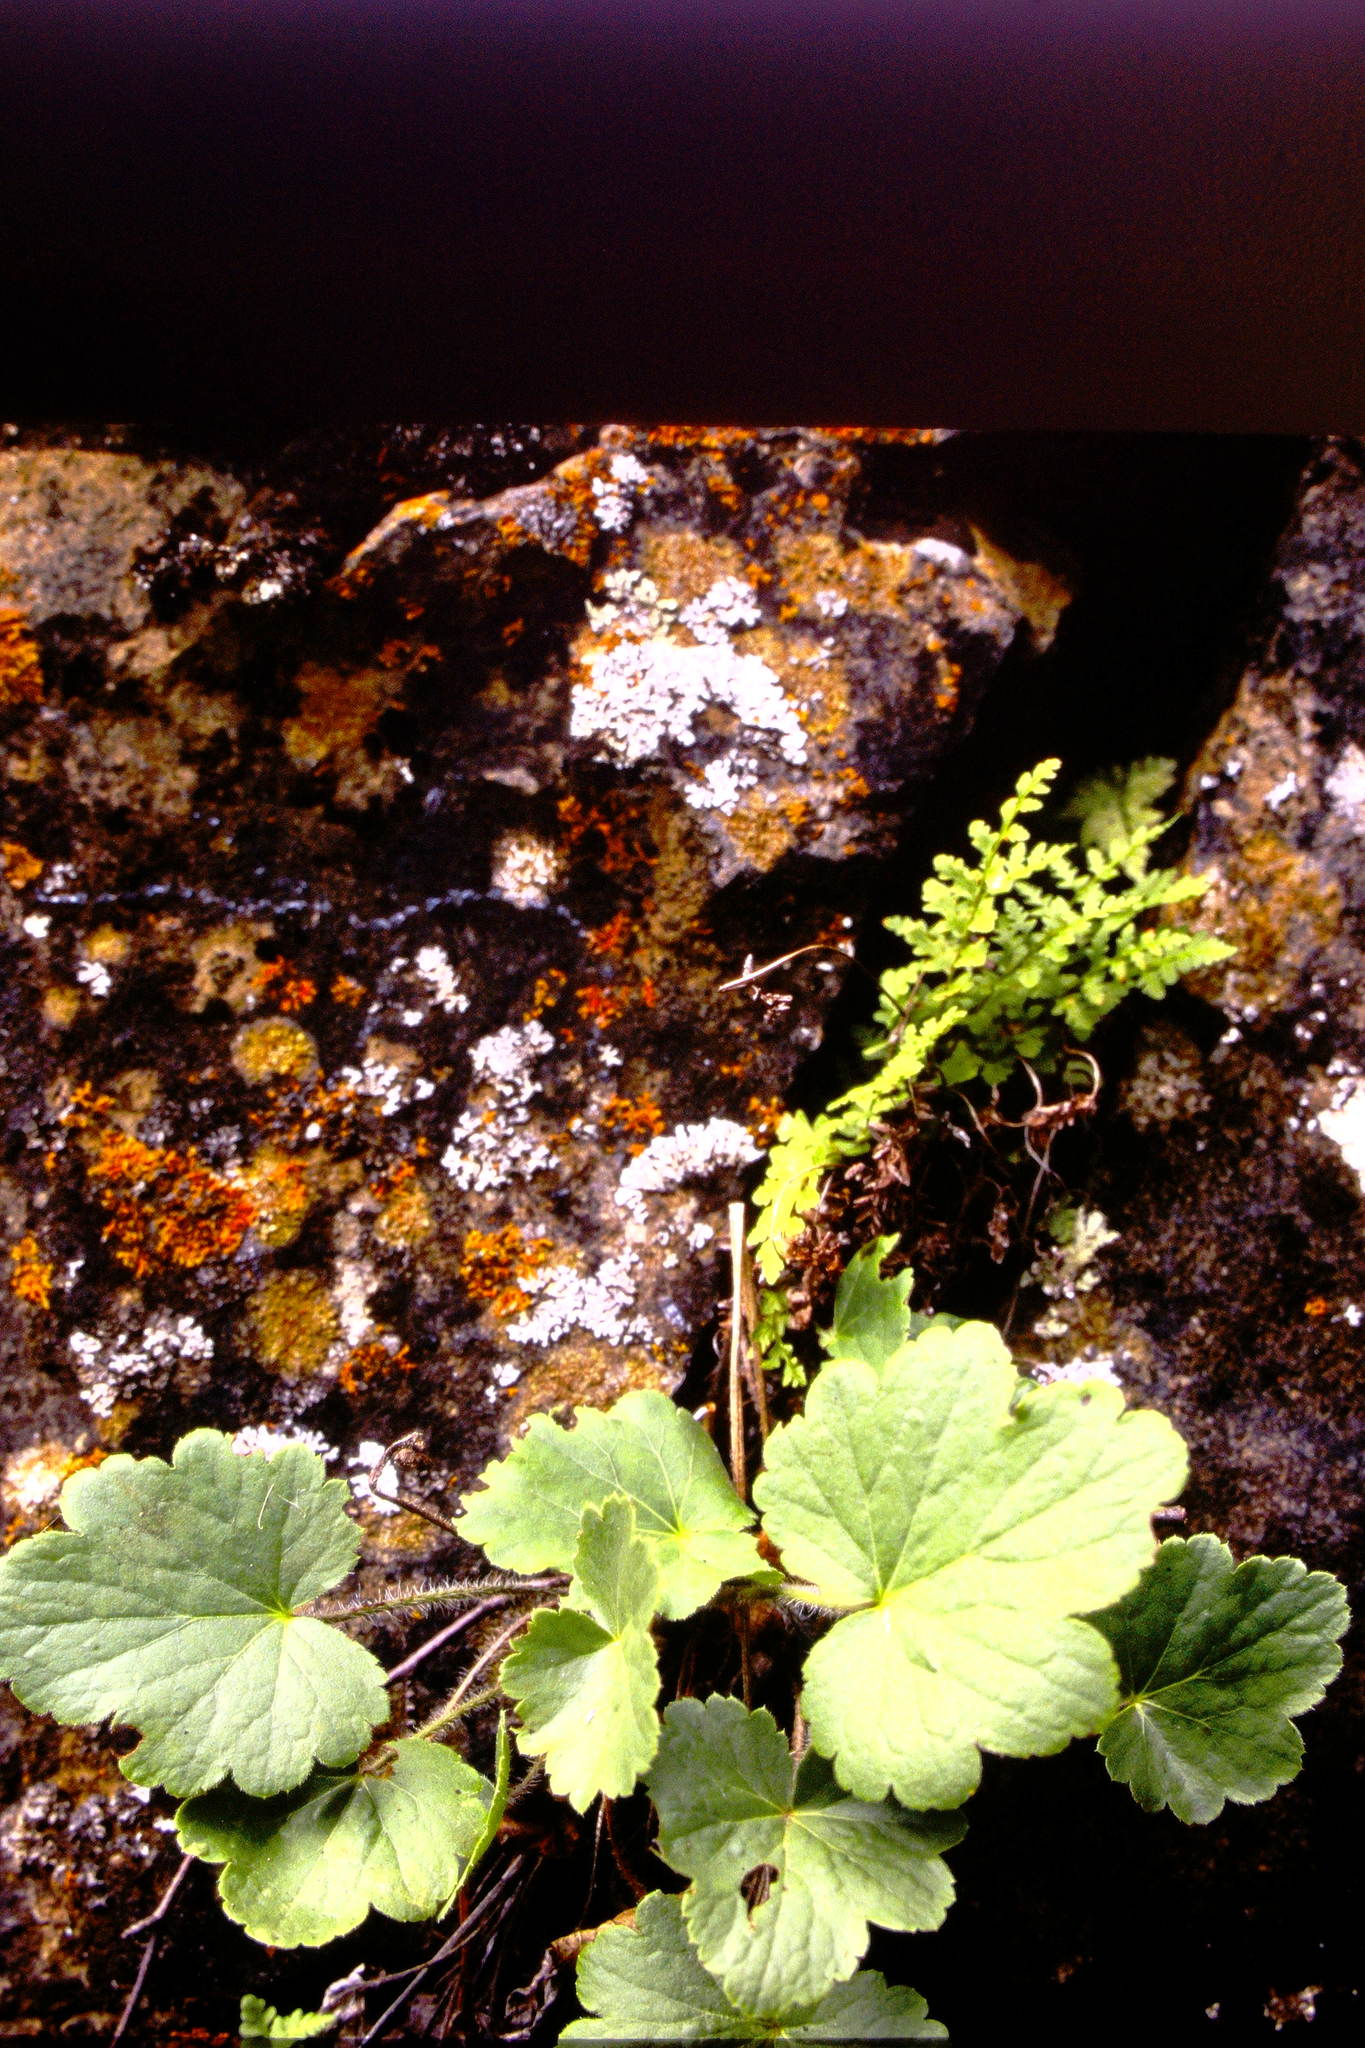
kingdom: Plantae
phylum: Tracheophyta
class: Magnoliopsida
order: Saxifragales
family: Saxifragaceae
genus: Heuchera
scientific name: Heuchera richardsonii
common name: Richardson's alumroot
